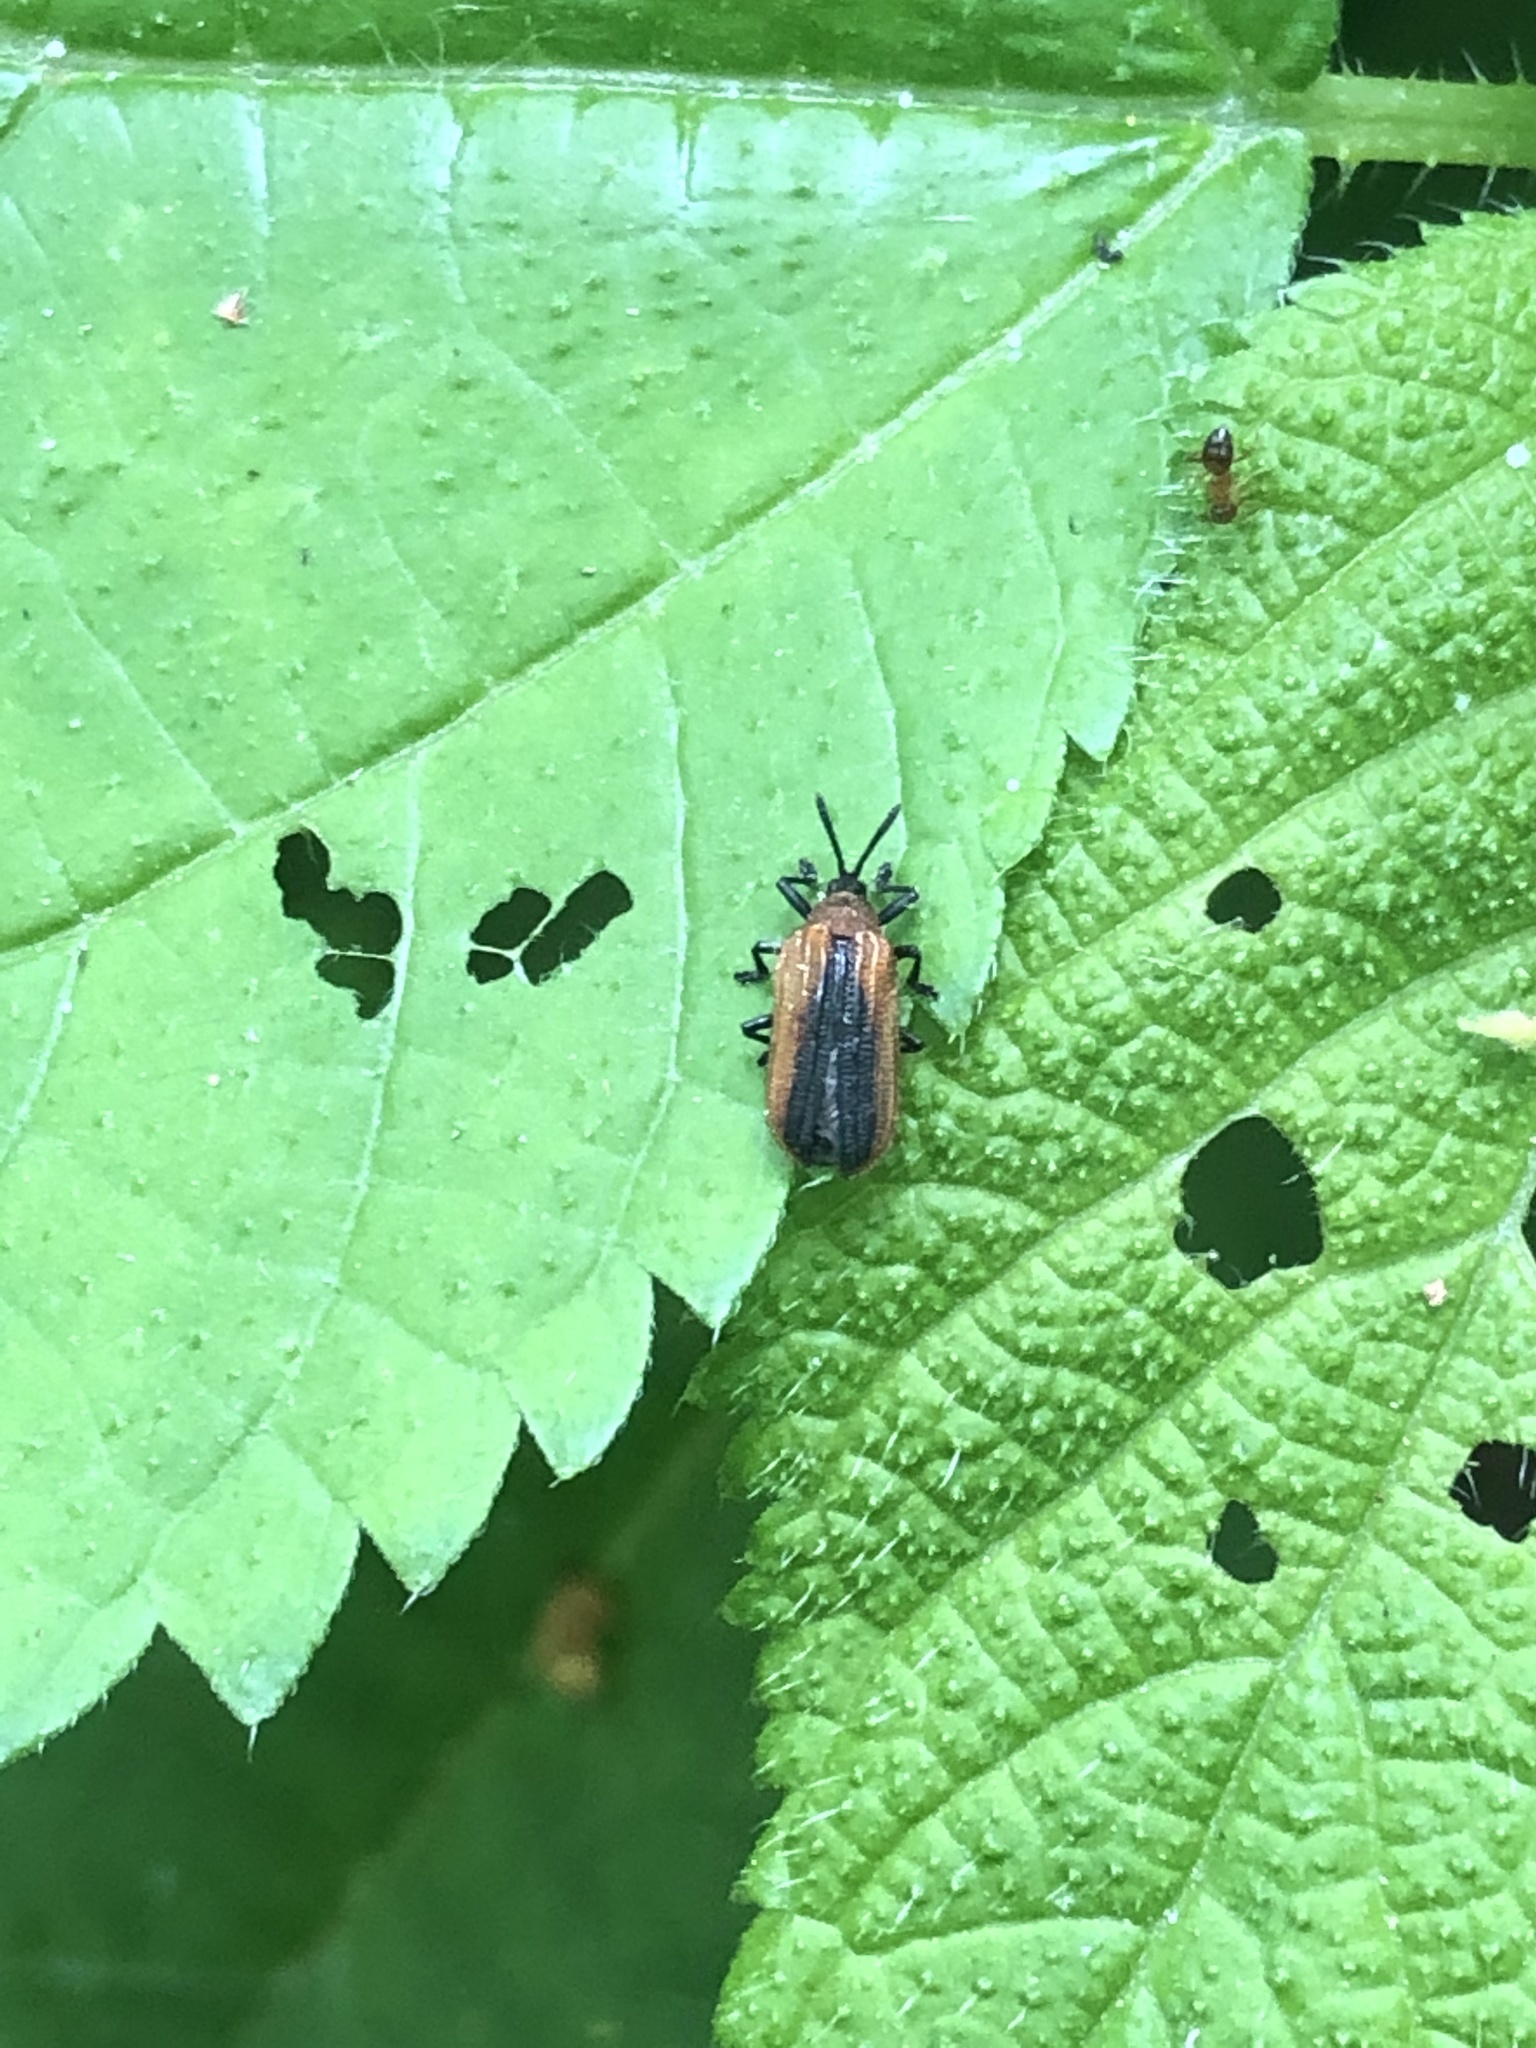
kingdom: Animalia
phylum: Arthropoda
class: Insecta
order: Coleoptera
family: Chrysomelidae
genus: Odontota
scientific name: Odontota dorsalis
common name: Locust leaf-miner beetle
